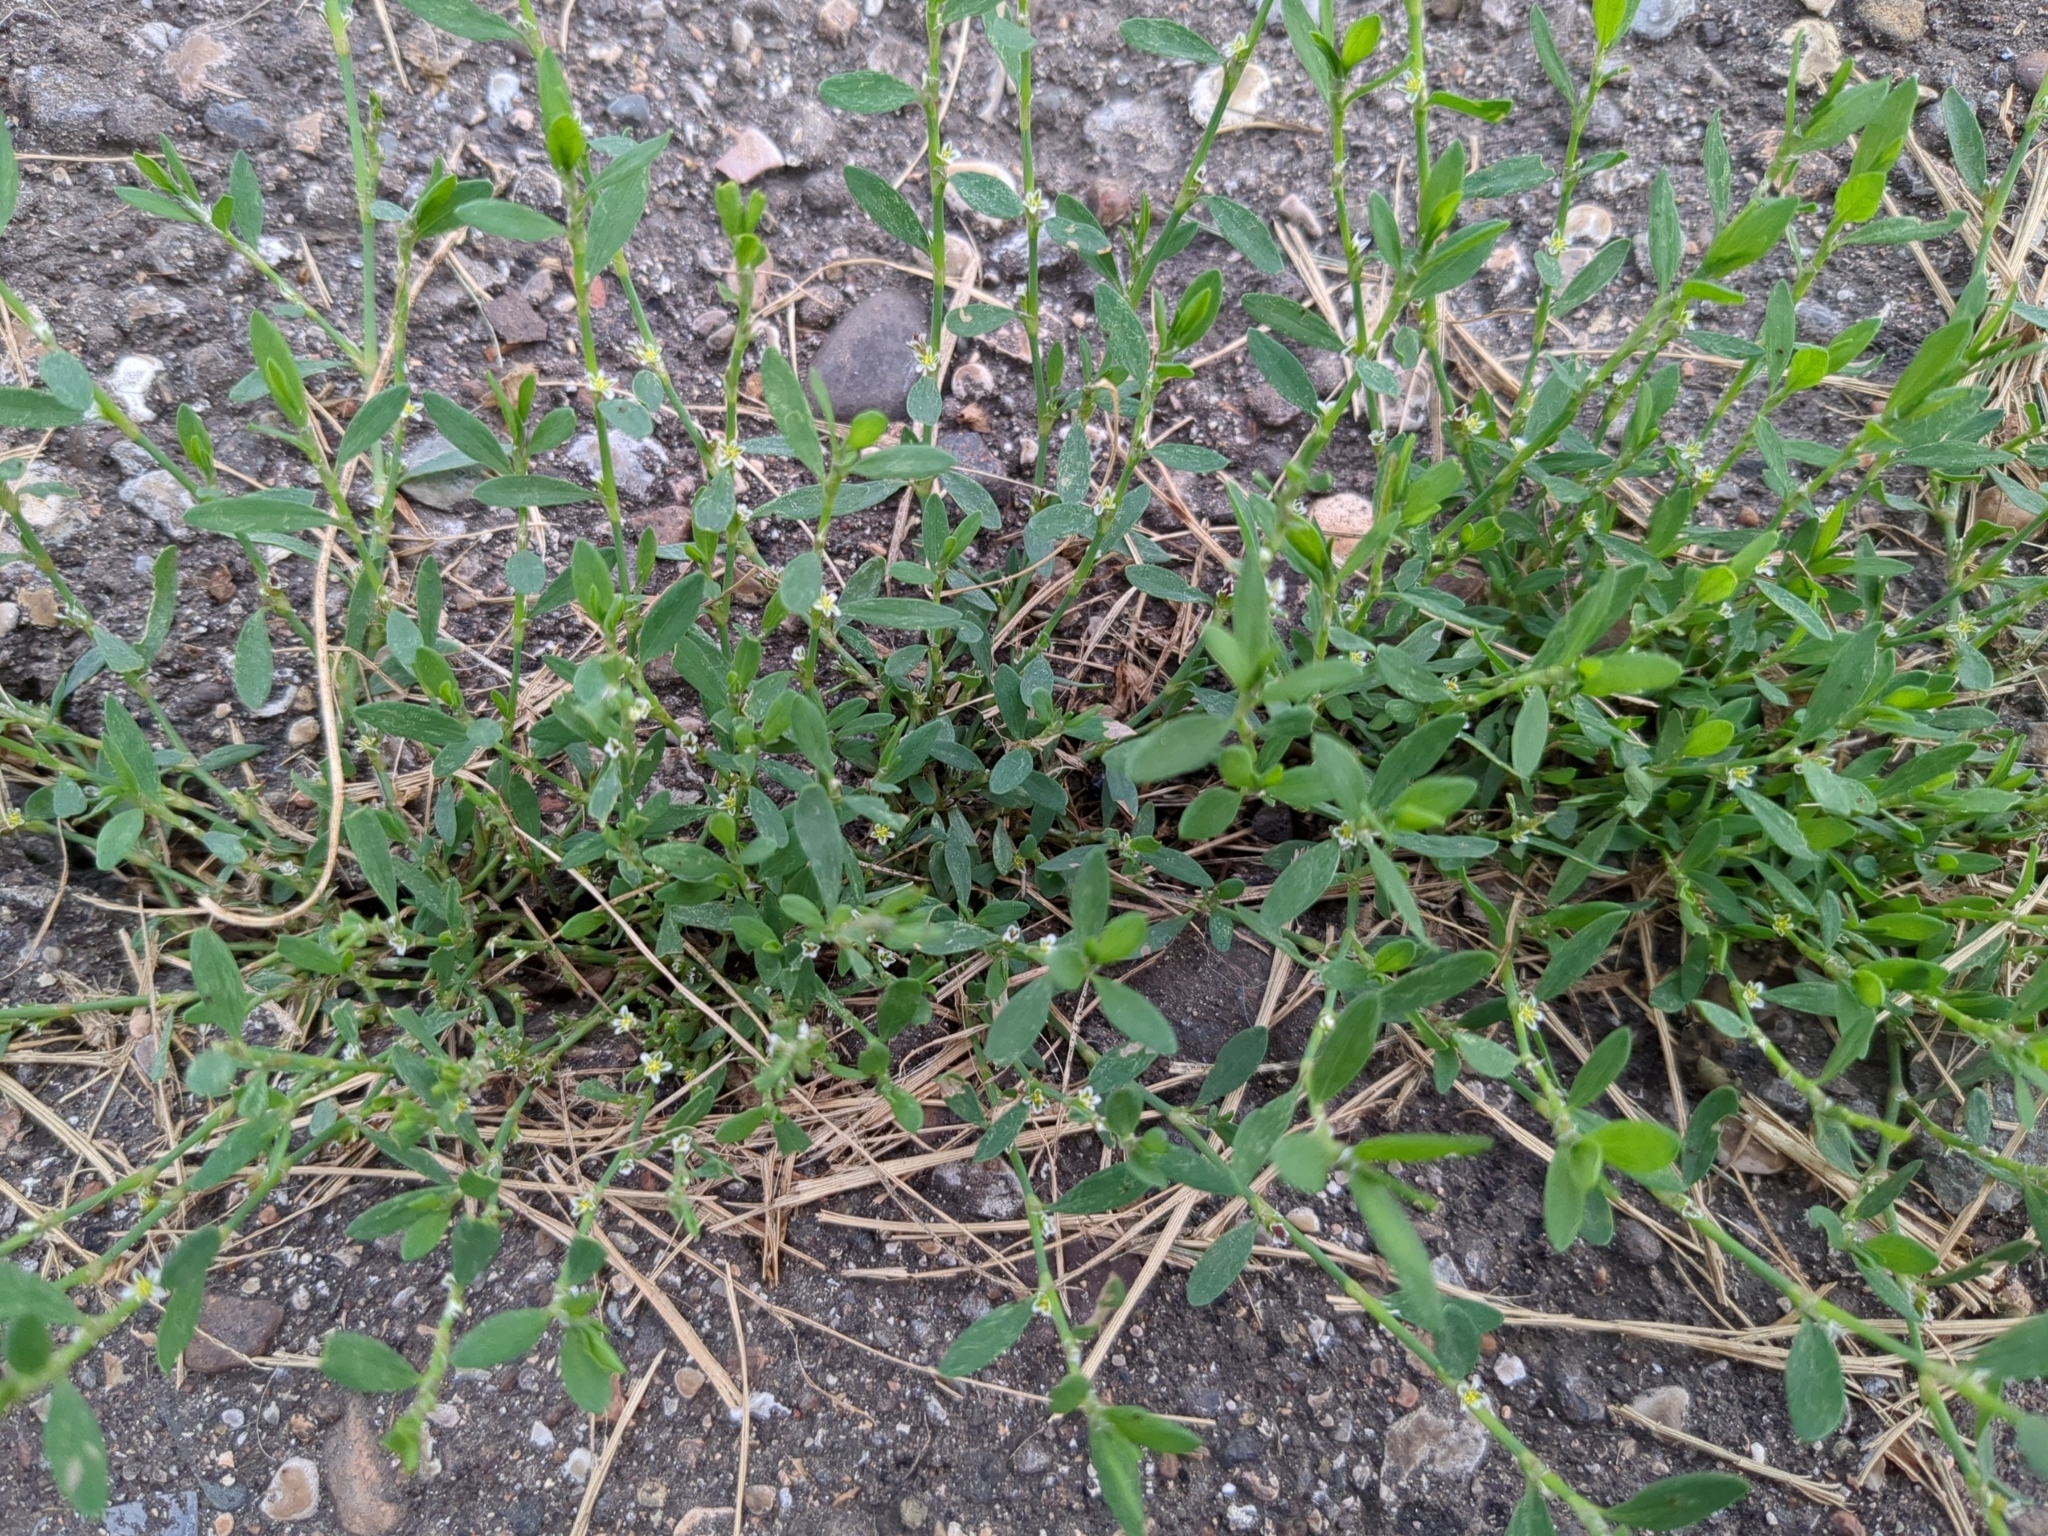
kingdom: Plantae
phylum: Tracheophyta
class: Magnoliopsida
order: Caryophyllales
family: Polygonaceae
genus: Polygonum
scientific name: Polygonum aviculare
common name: Prostrate knotweed
